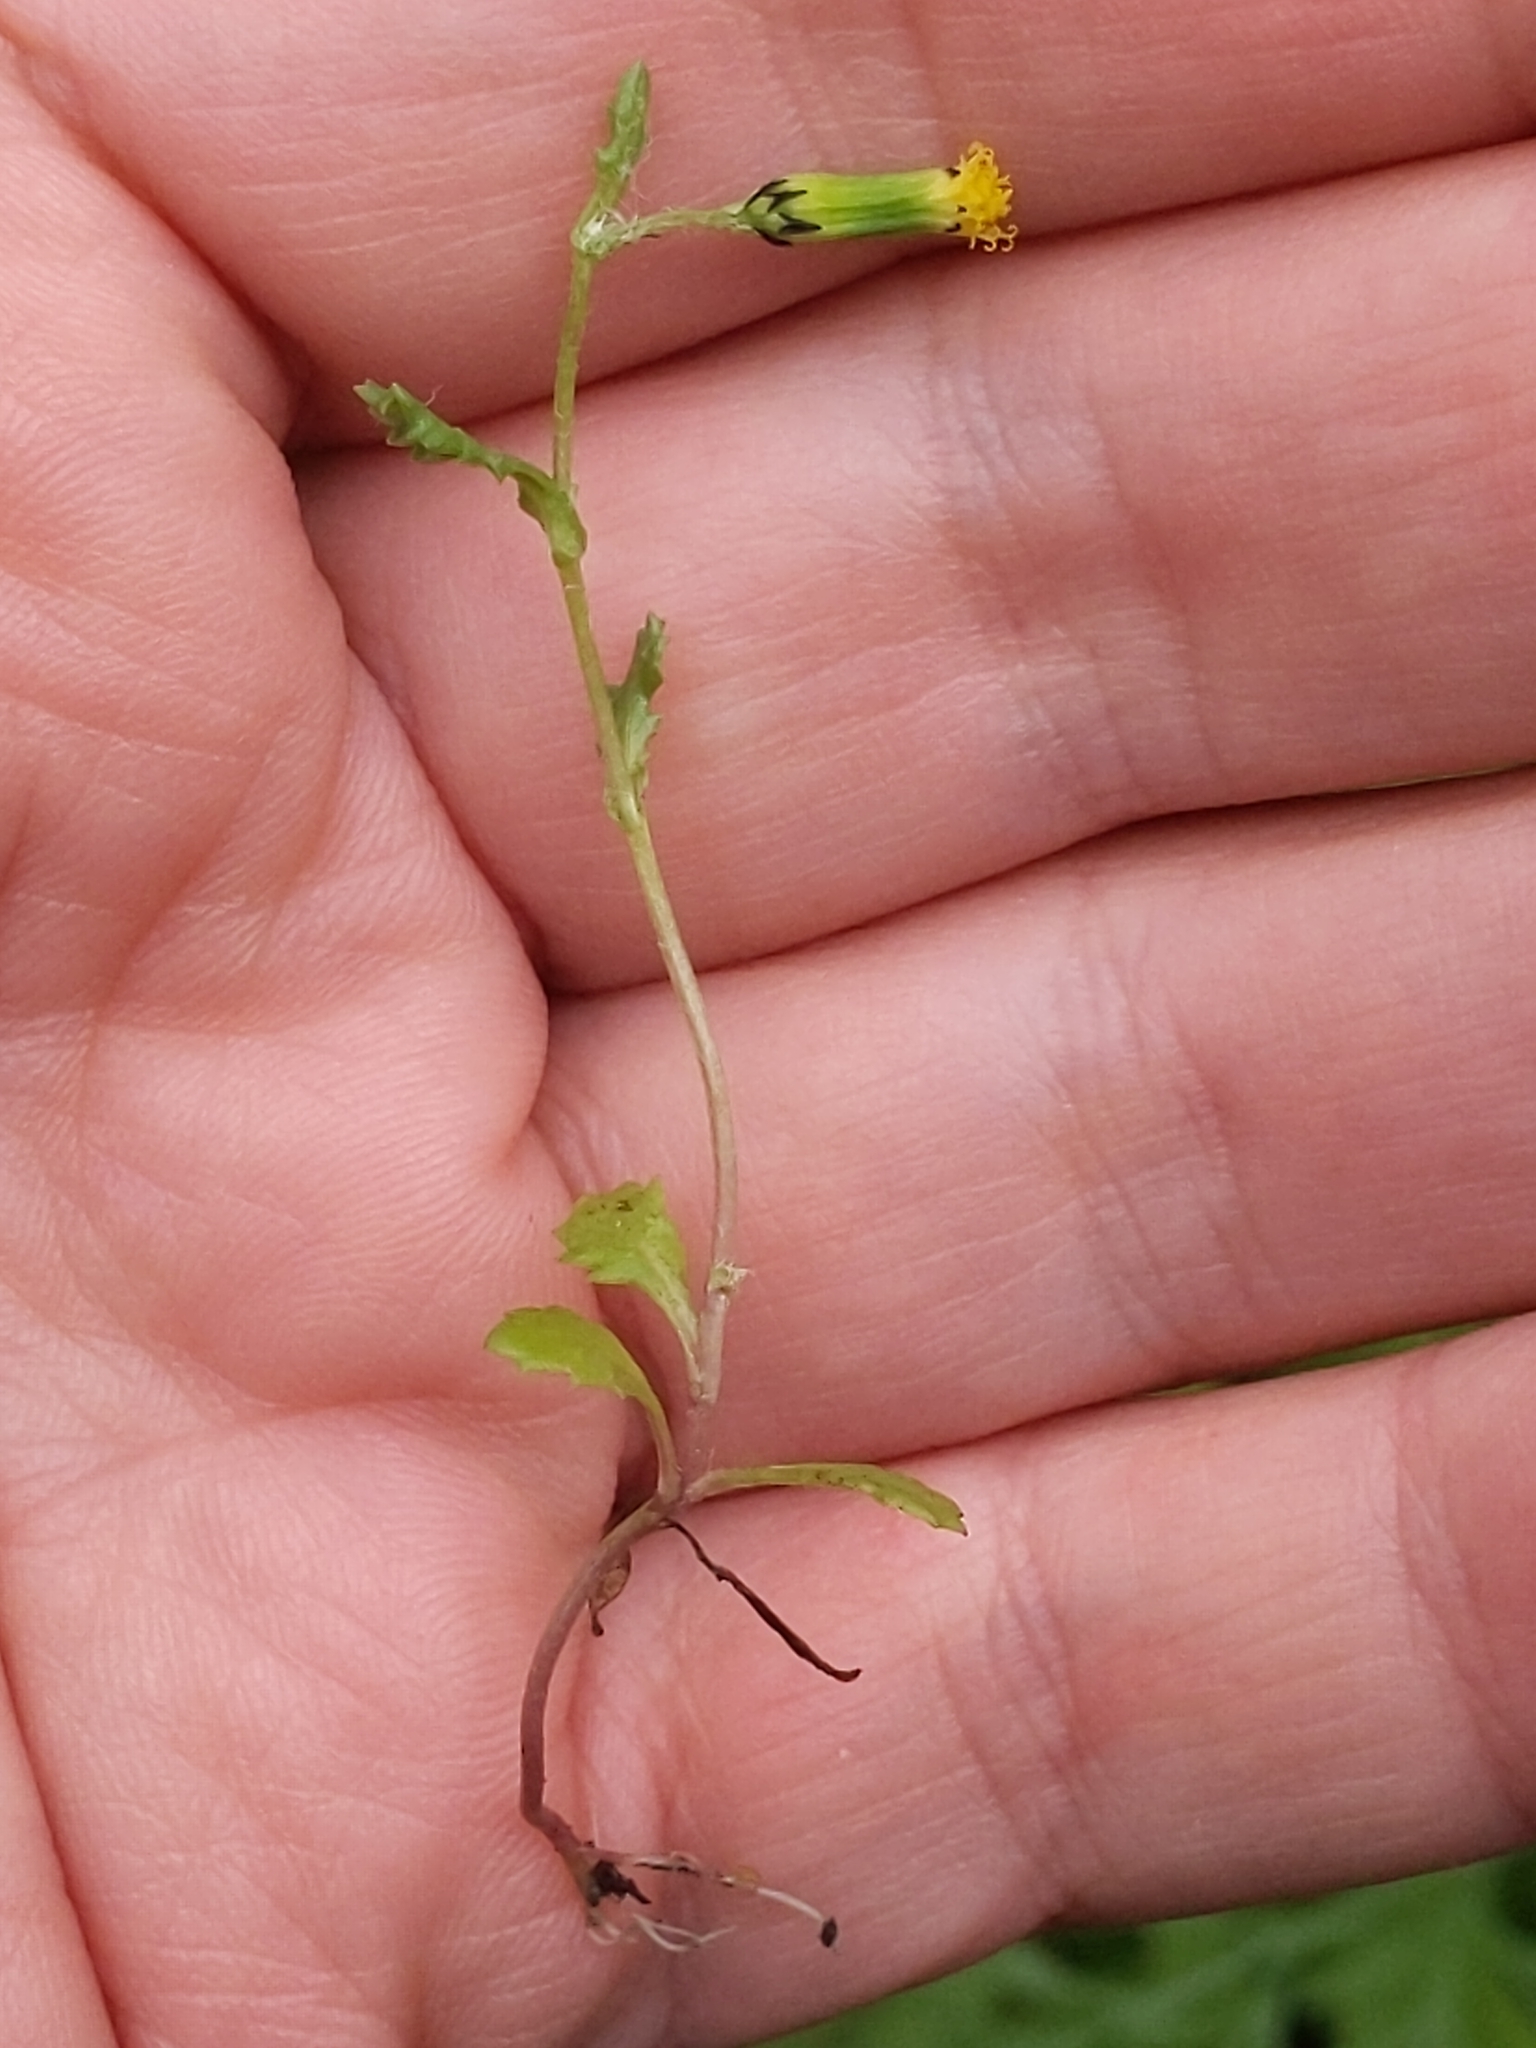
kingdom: Plantae
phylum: Tracheophyta
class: Magnoliopsida
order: Asterales
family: Asteraceae
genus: Senecio
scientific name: Senecio vulgaris
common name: Old-man-in-the-spring
